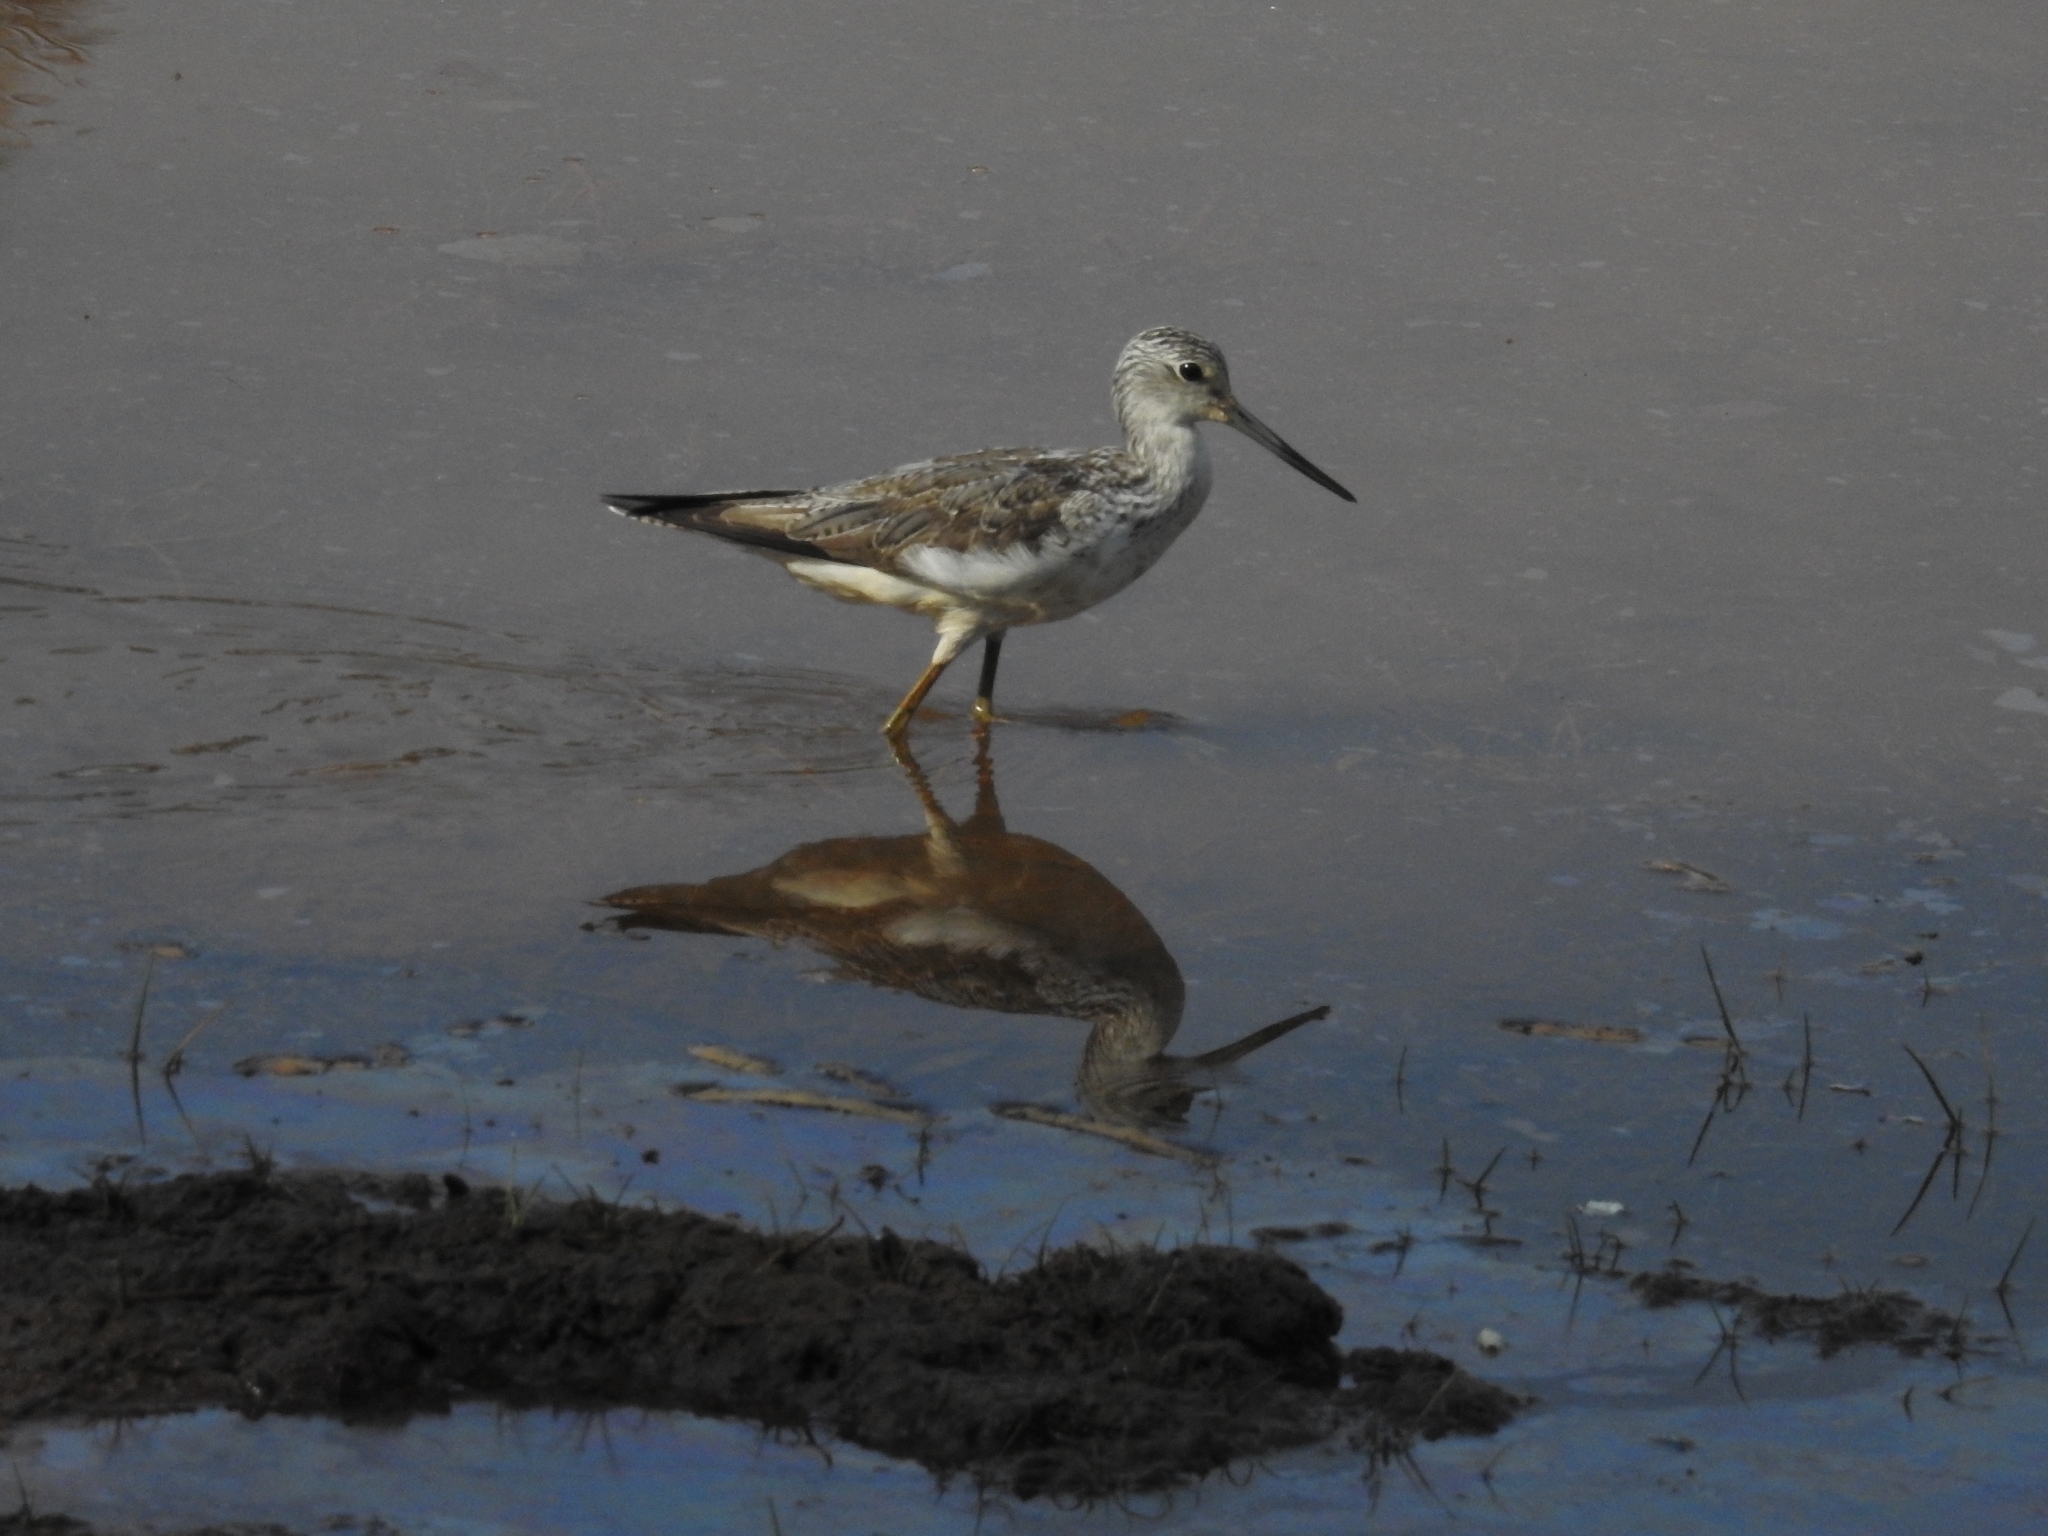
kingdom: Animalia
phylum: Chordata
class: Aves
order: Charadriiformes
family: Scolopacidae
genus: Tringa
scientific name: Tringa nebularia
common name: Common greenshank
